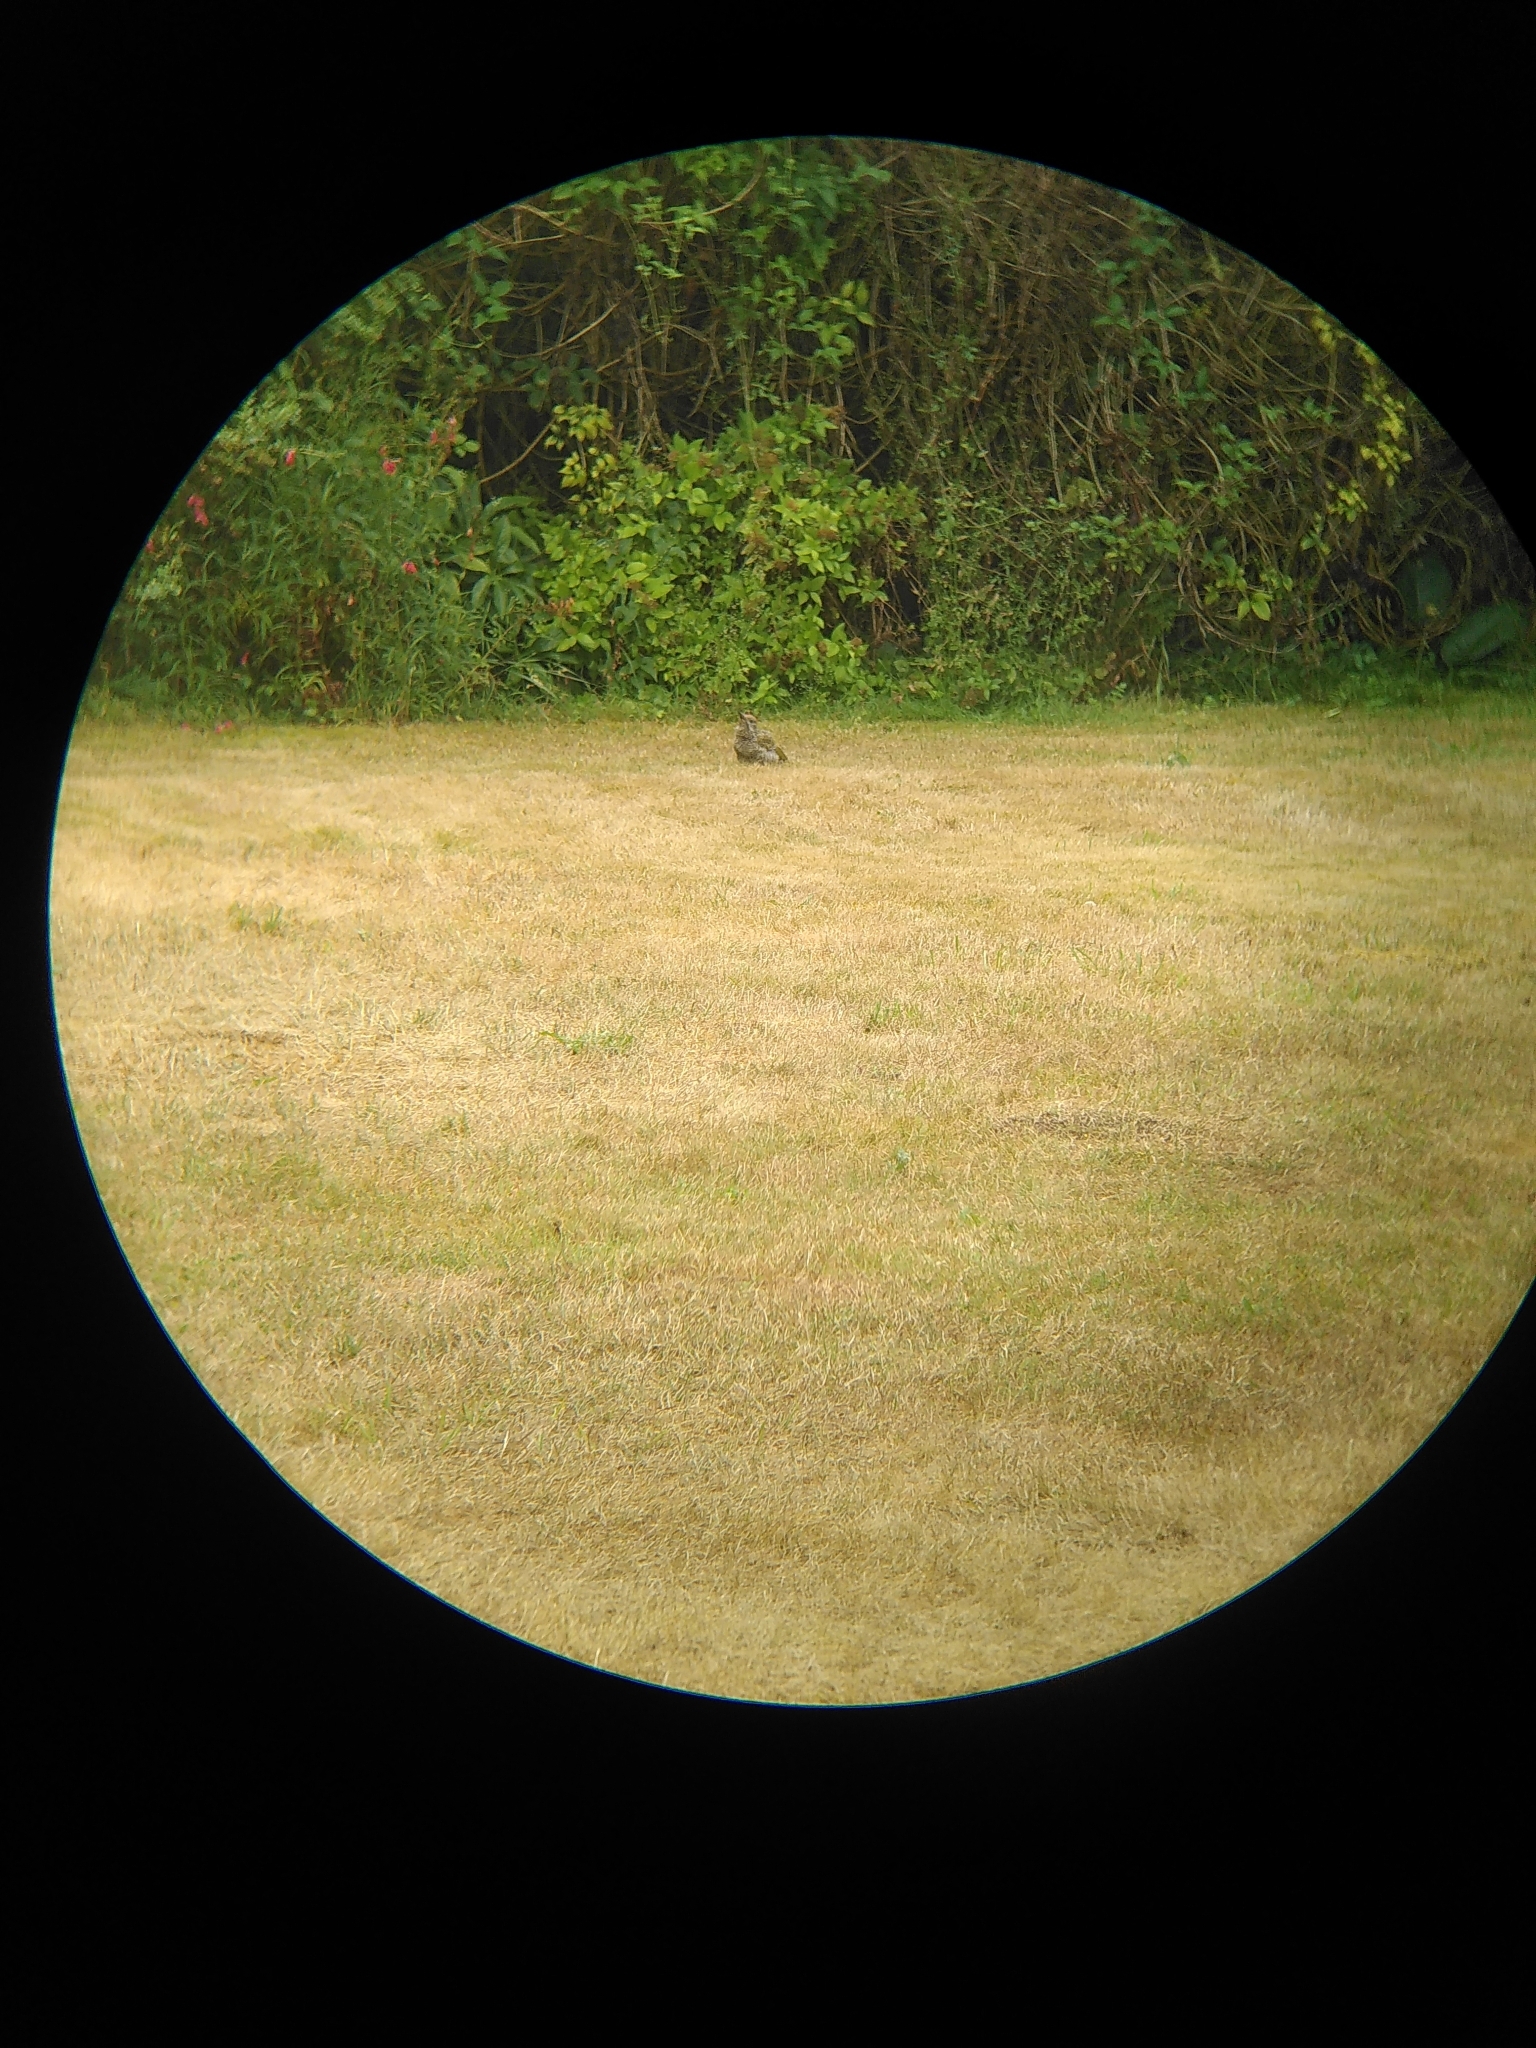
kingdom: Animalia
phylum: Chordata
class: Aves
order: Piciformes
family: Picidae
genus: Picus
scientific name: Picus viridis
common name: European green woodpecker
